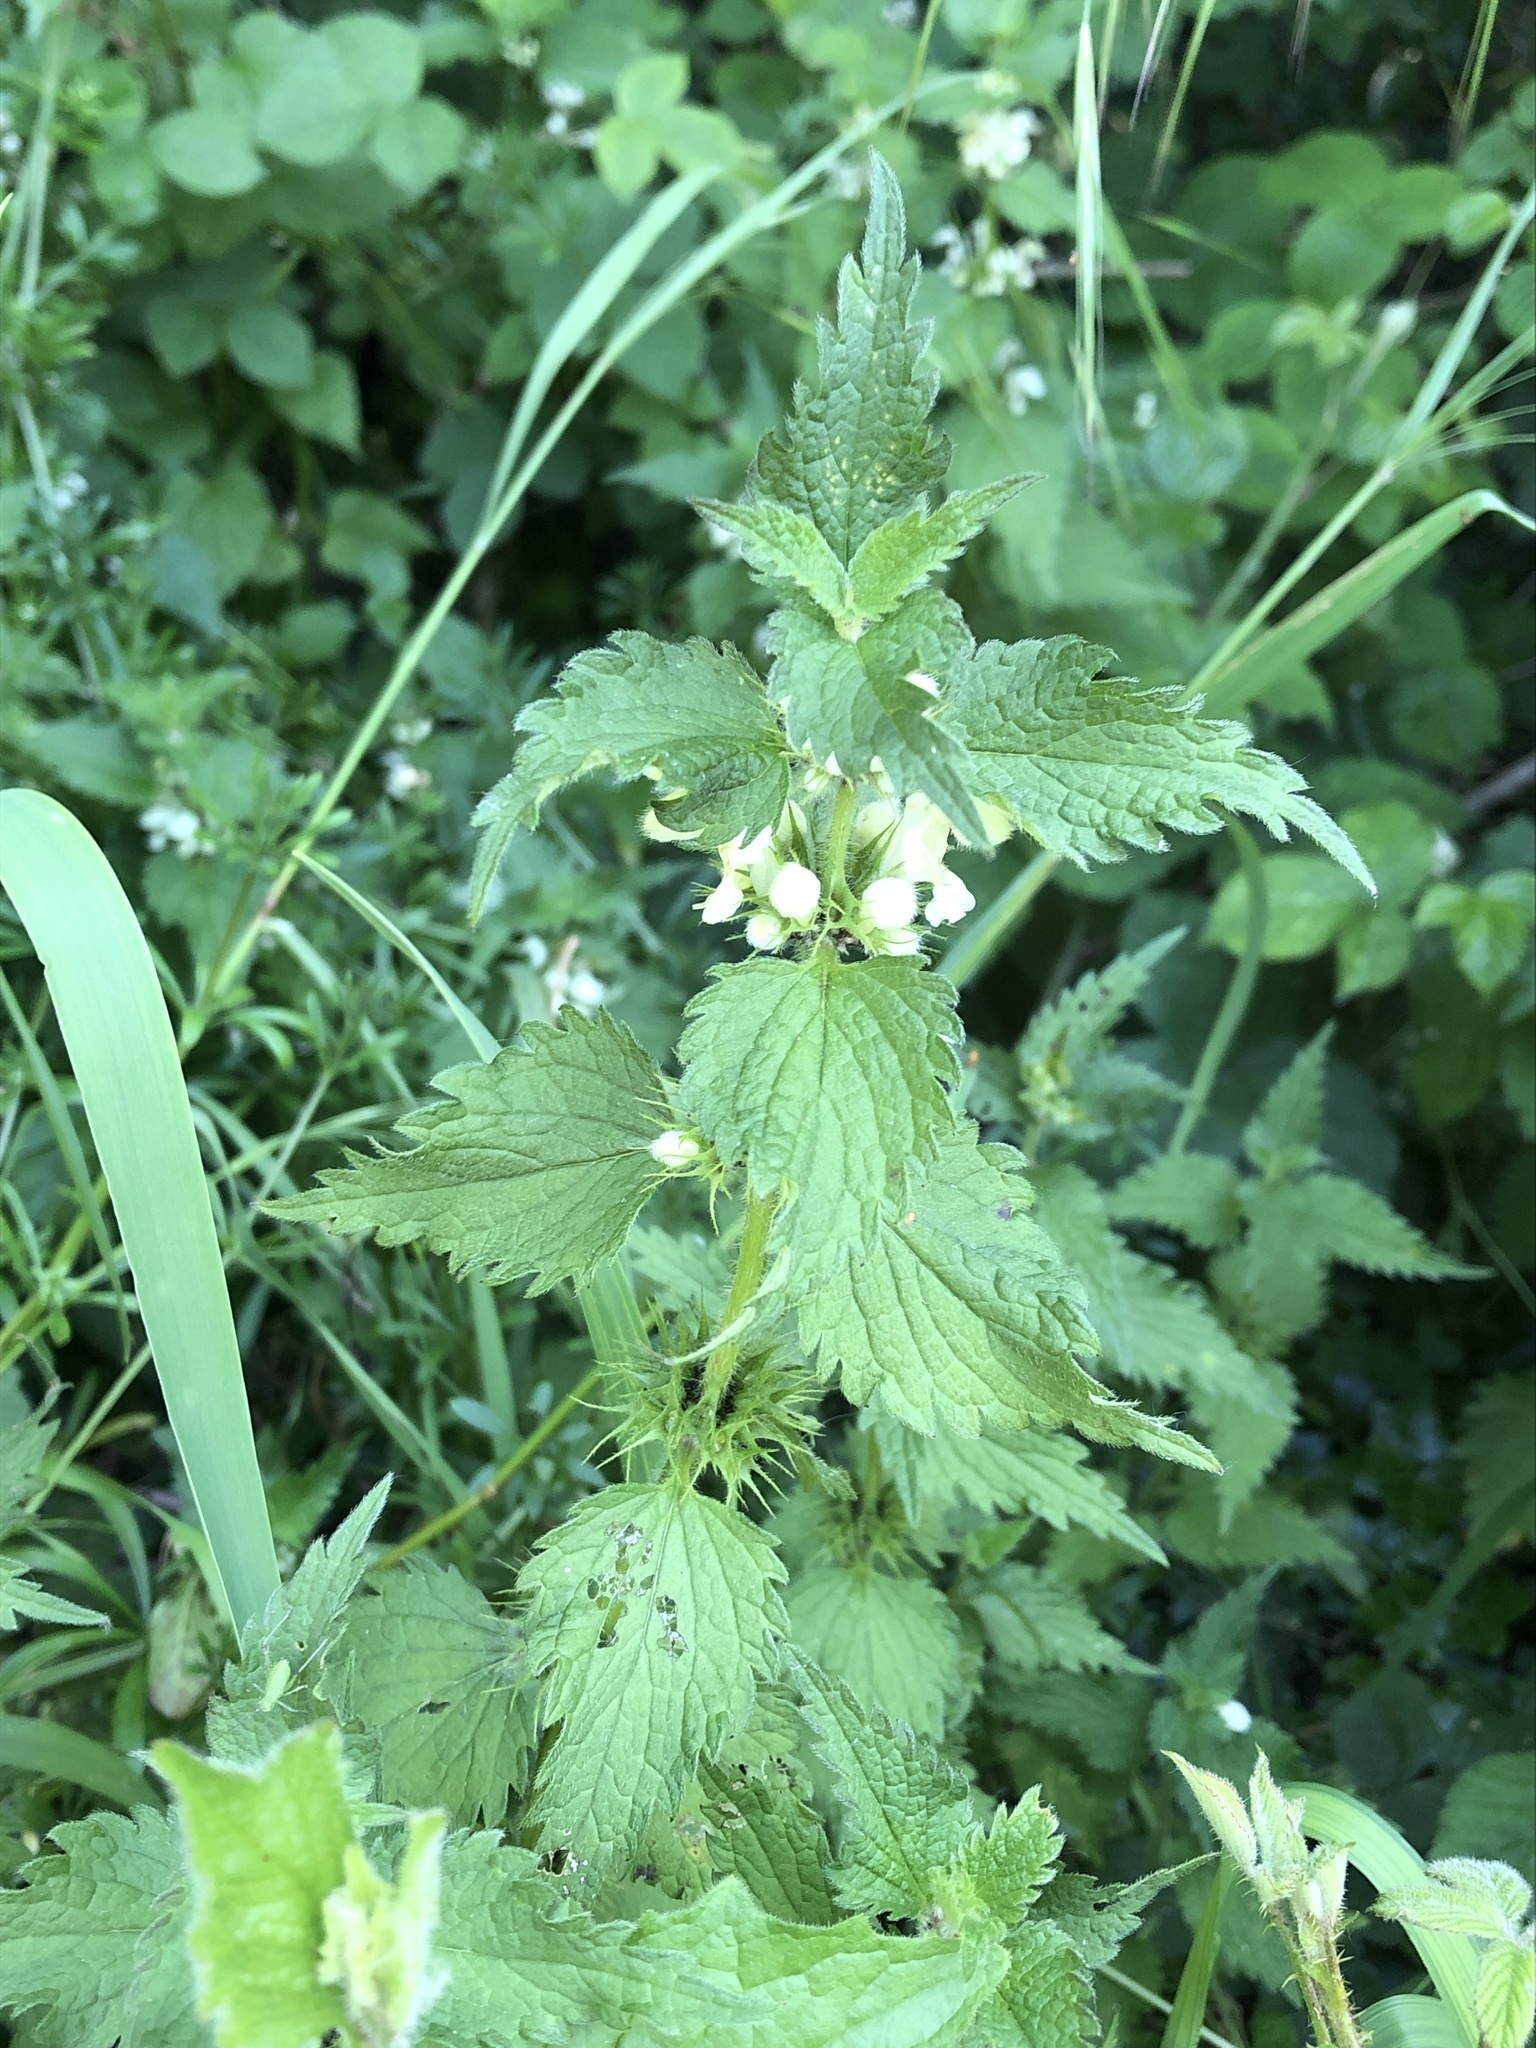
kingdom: Plantae
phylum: Tracheophyta
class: Magnoliopsida
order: Lamiales
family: Lamiaceae
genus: Lamium
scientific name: Lamium album
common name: White dead-nettle
